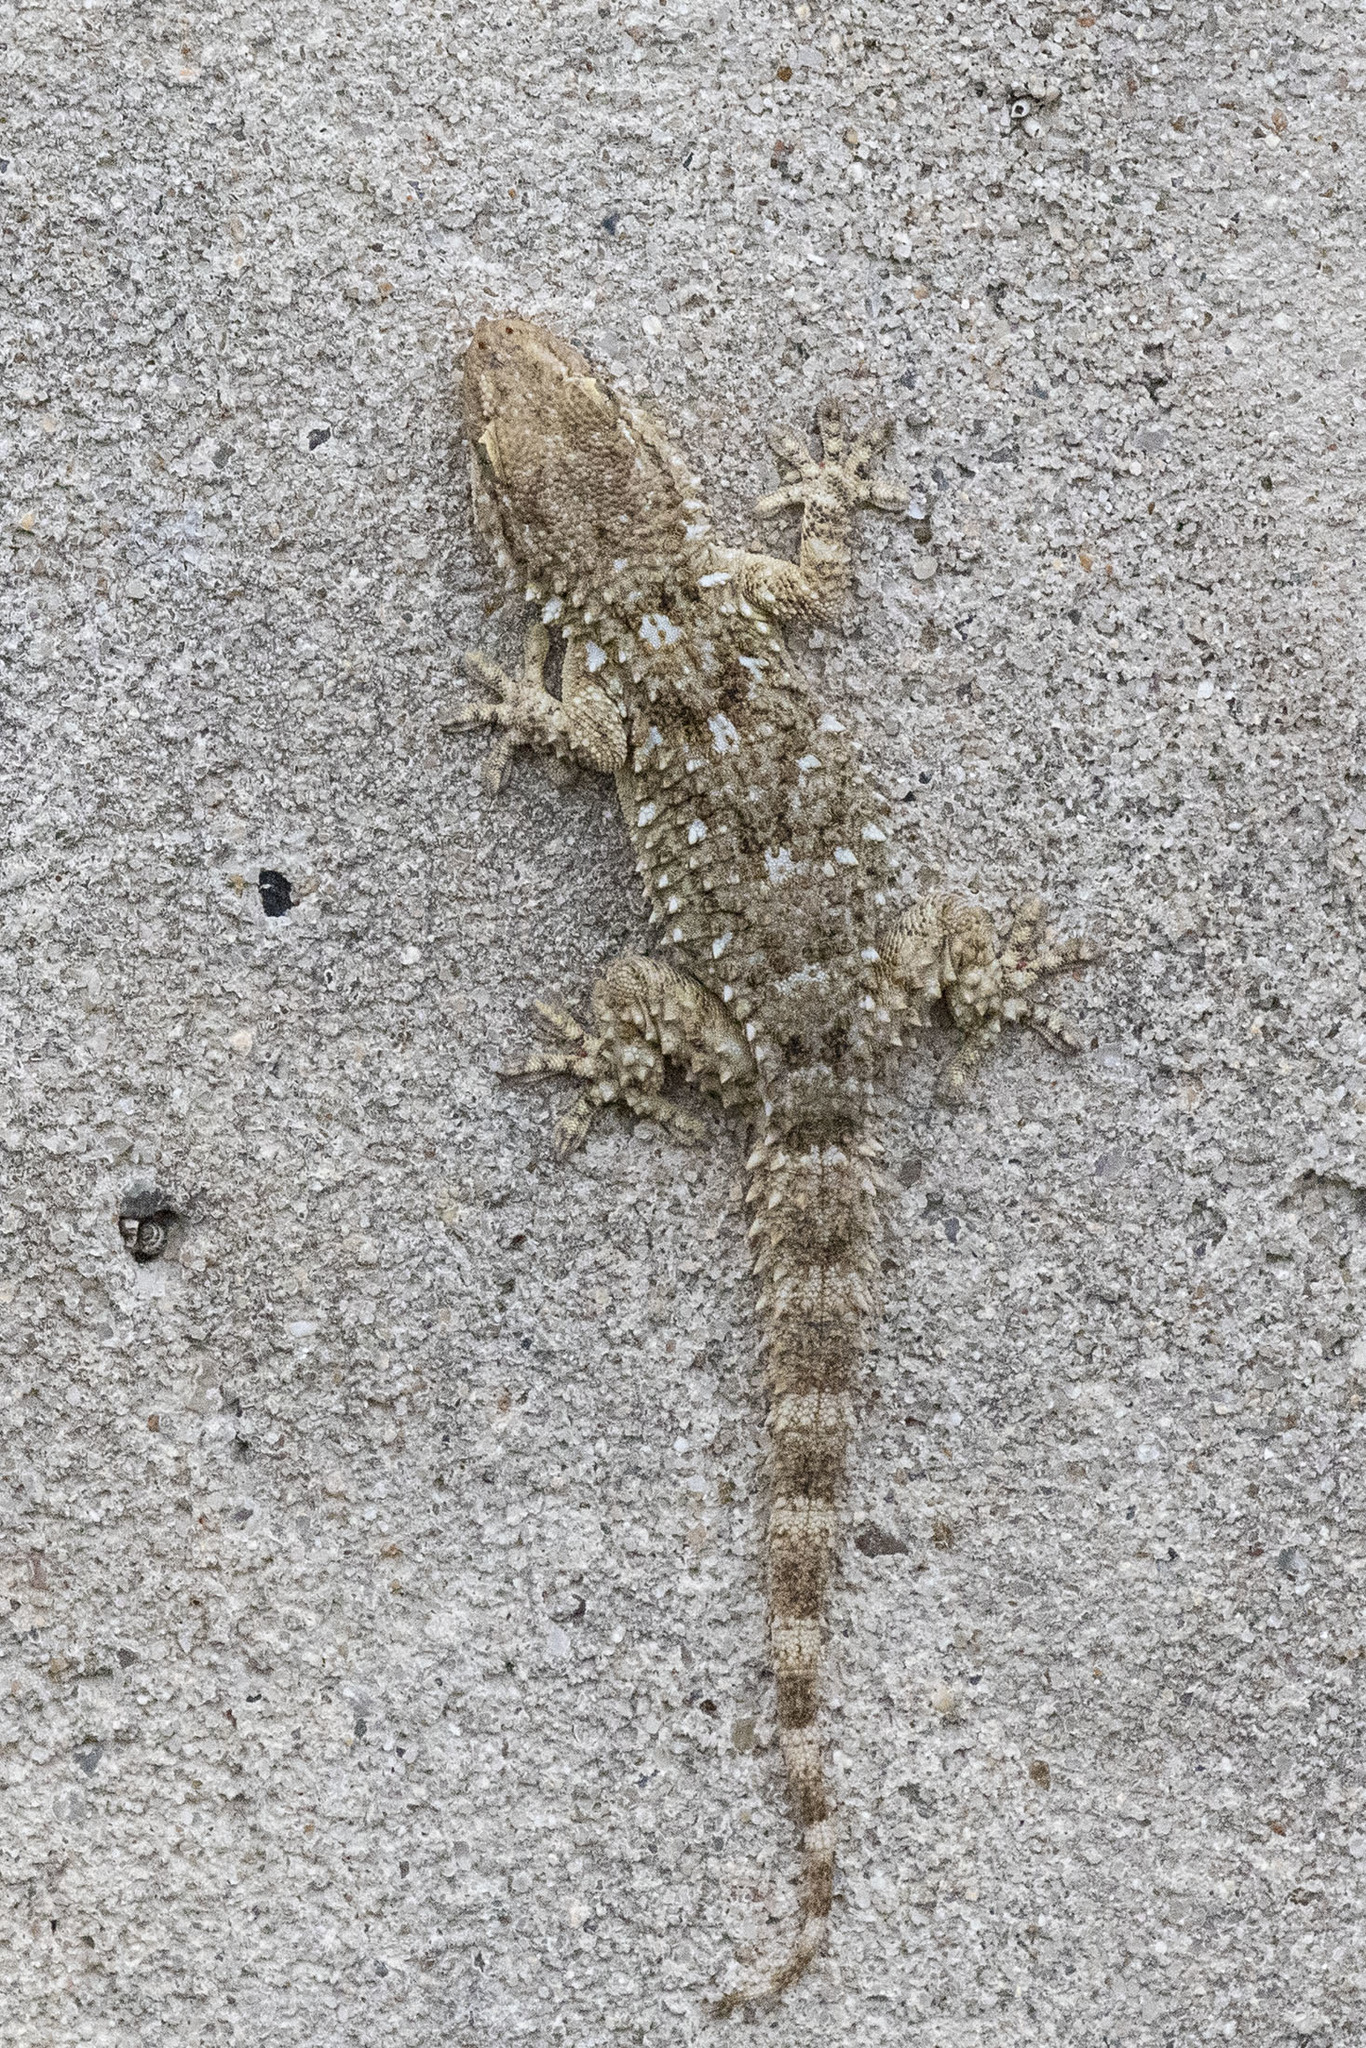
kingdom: Animalia
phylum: Chordata
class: Squamata
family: Phyllodactylidae
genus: Tarentola
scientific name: Tarentola mauritanica
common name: Moorish gecko
